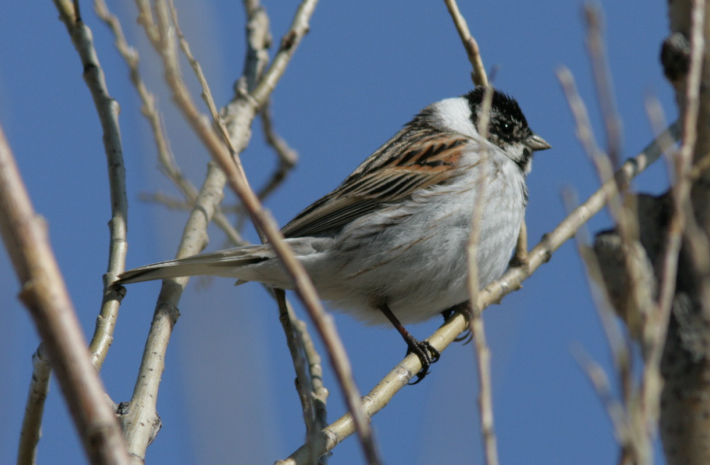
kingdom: Animalia
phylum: Chordata
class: Aves
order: Passeriformes
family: Emberizidae
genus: Emberiza
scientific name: Emberiza schoeniclus
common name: Reed bunting
